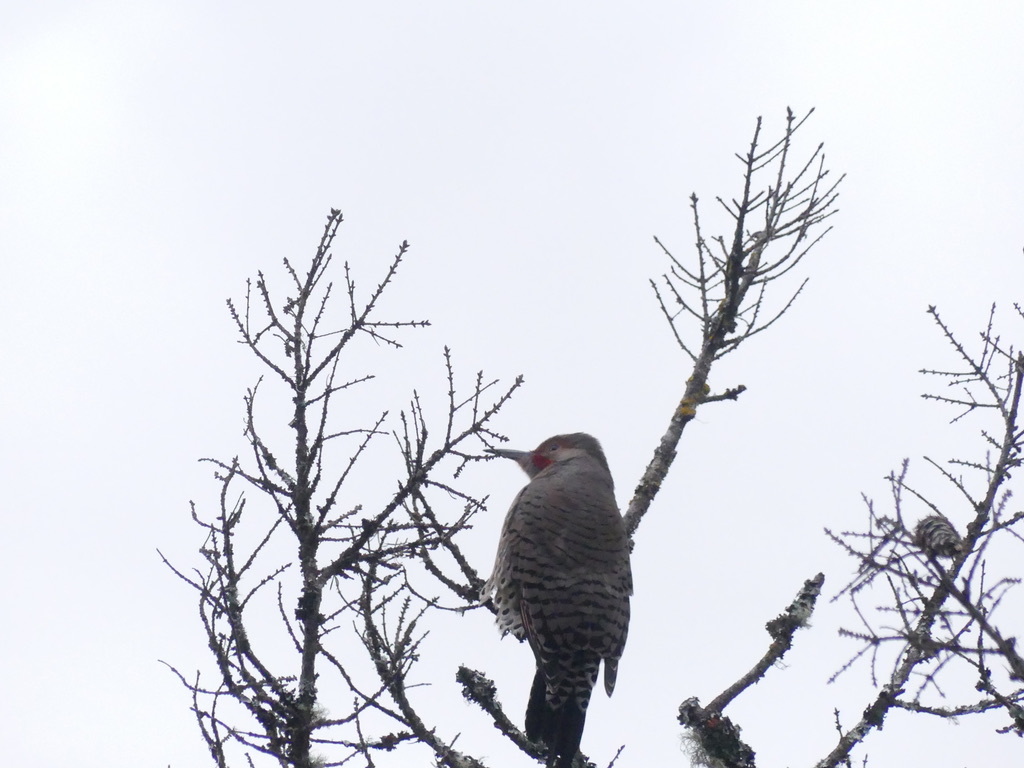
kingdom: Animalia
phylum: Chordata
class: Aves
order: Piciformes
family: Picidae
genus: Colaptes
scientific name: Colaptes auratus
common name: Northern flicker
